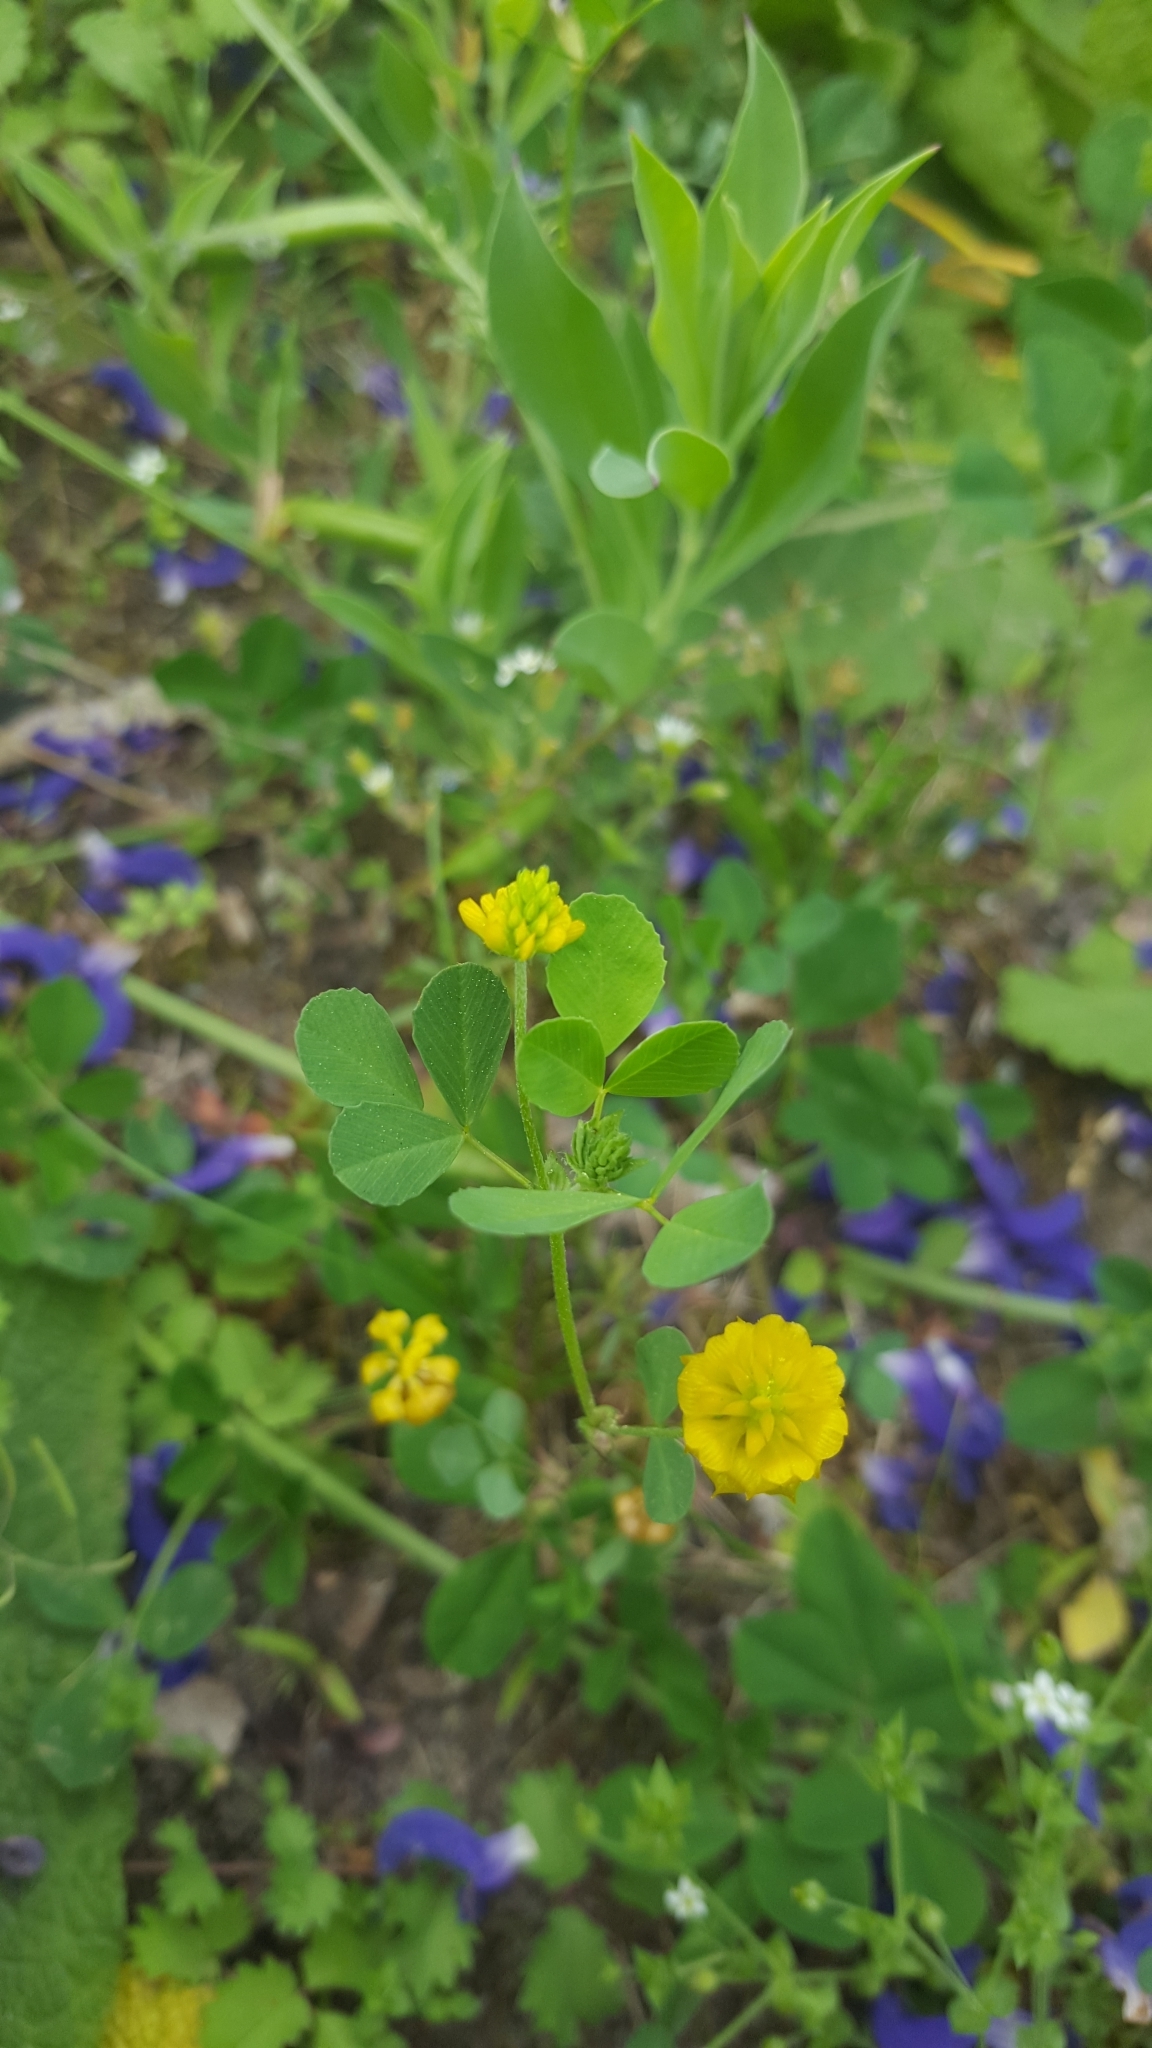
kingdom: Plantae
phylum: Tracheophyta
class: Magnoliopsida
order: Fabales
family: Fabaceae
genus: Trifolium
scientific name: Trifolium campestre
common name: Field clover
